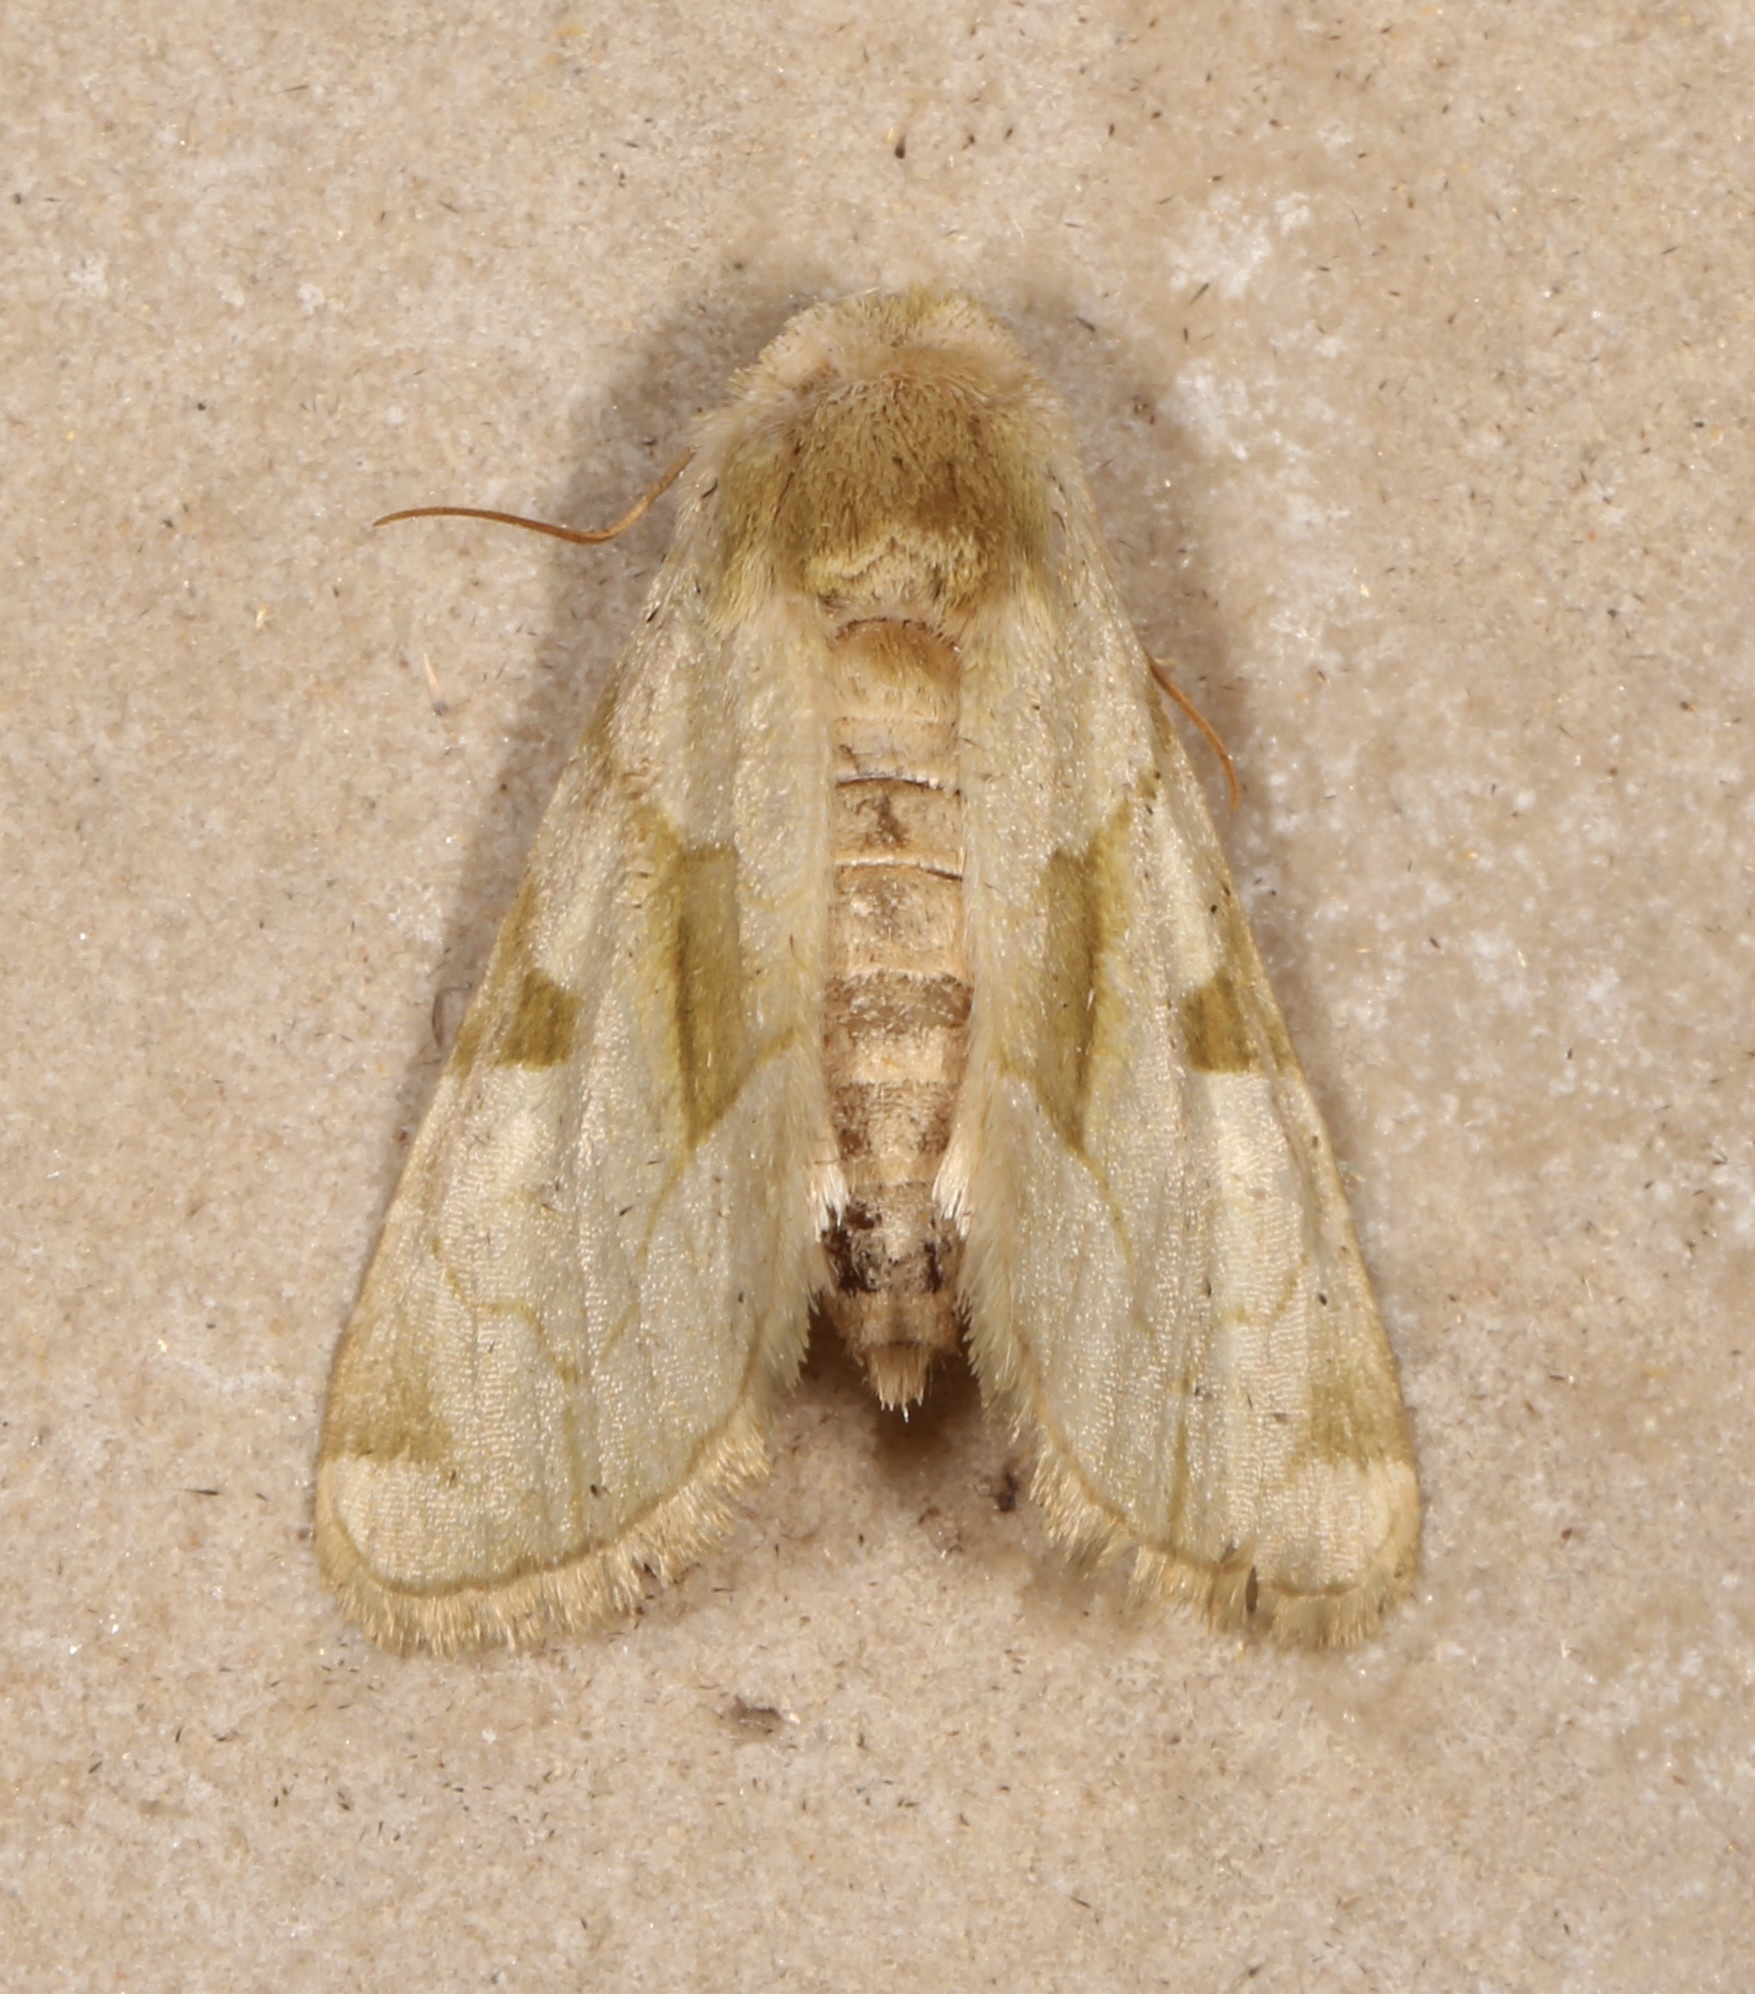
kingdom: Animalia
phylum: Arthropoda
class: Insecta
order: Lepidoptera
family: Noctuidae
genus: Oslaria
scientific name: Oslaria viridifera
